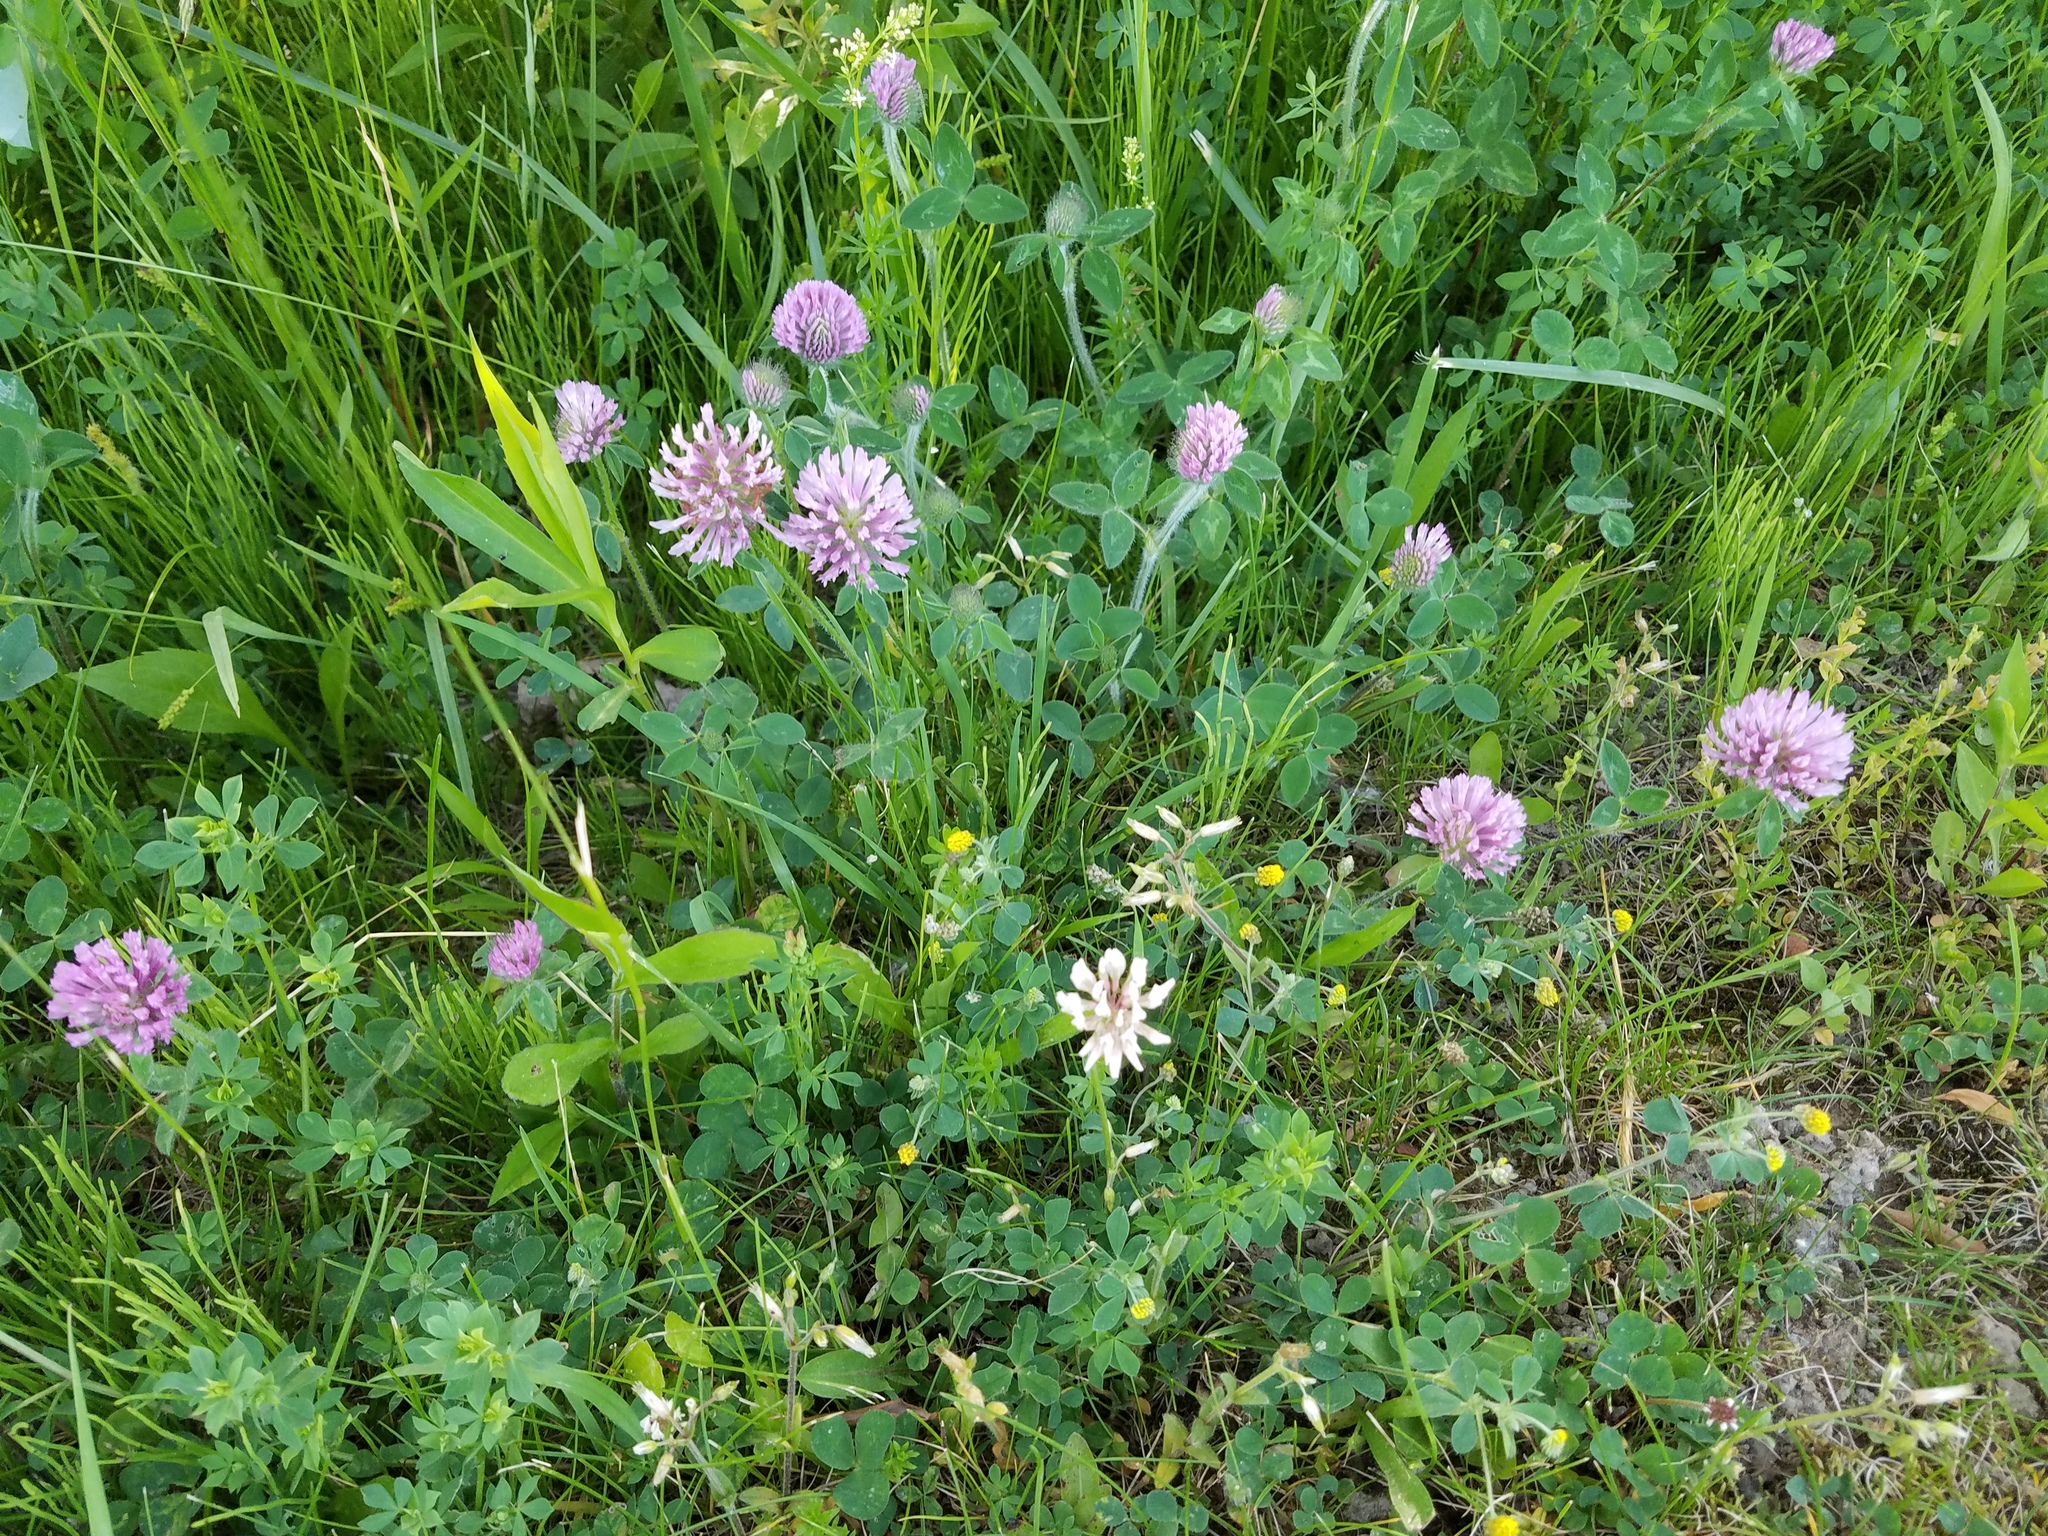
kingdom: Plantae
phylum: Tracheophyta
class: Magnoliopsida
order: Fabales
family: Fabaceae
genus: Trifolium
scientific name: Trifolium pratense
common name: Red clover
